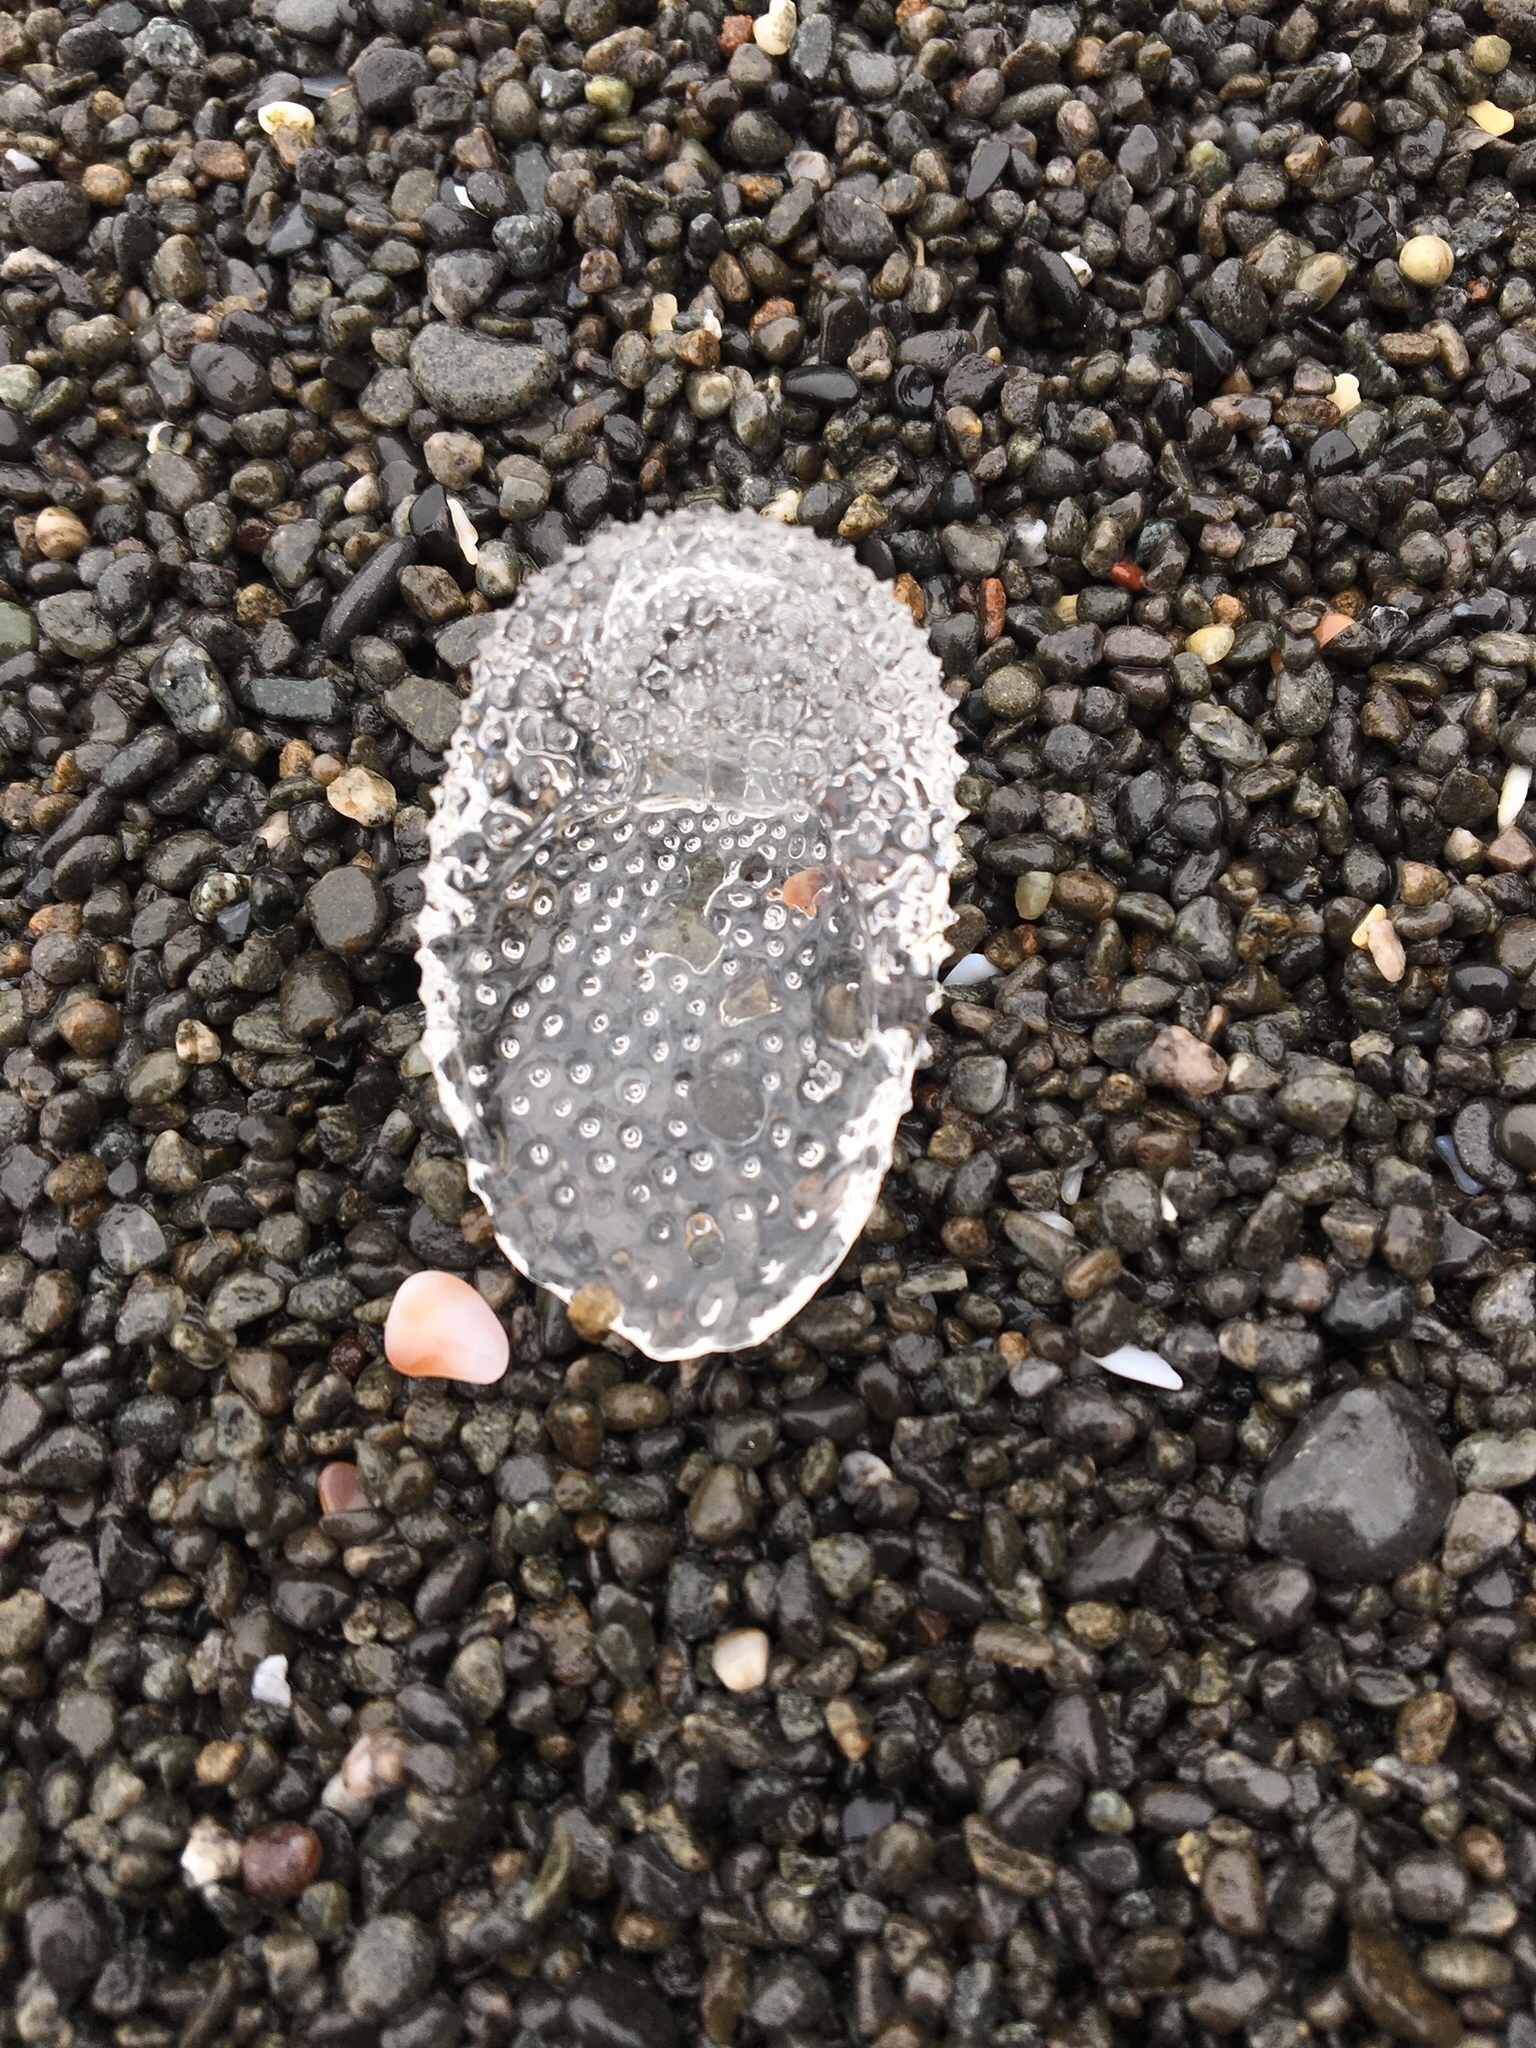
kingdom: Animalia
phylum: Mollusca
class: Gastropoda
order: Pteropoda
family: Cymbuliidae
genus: Corolla
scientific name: Corolla spectabilis
